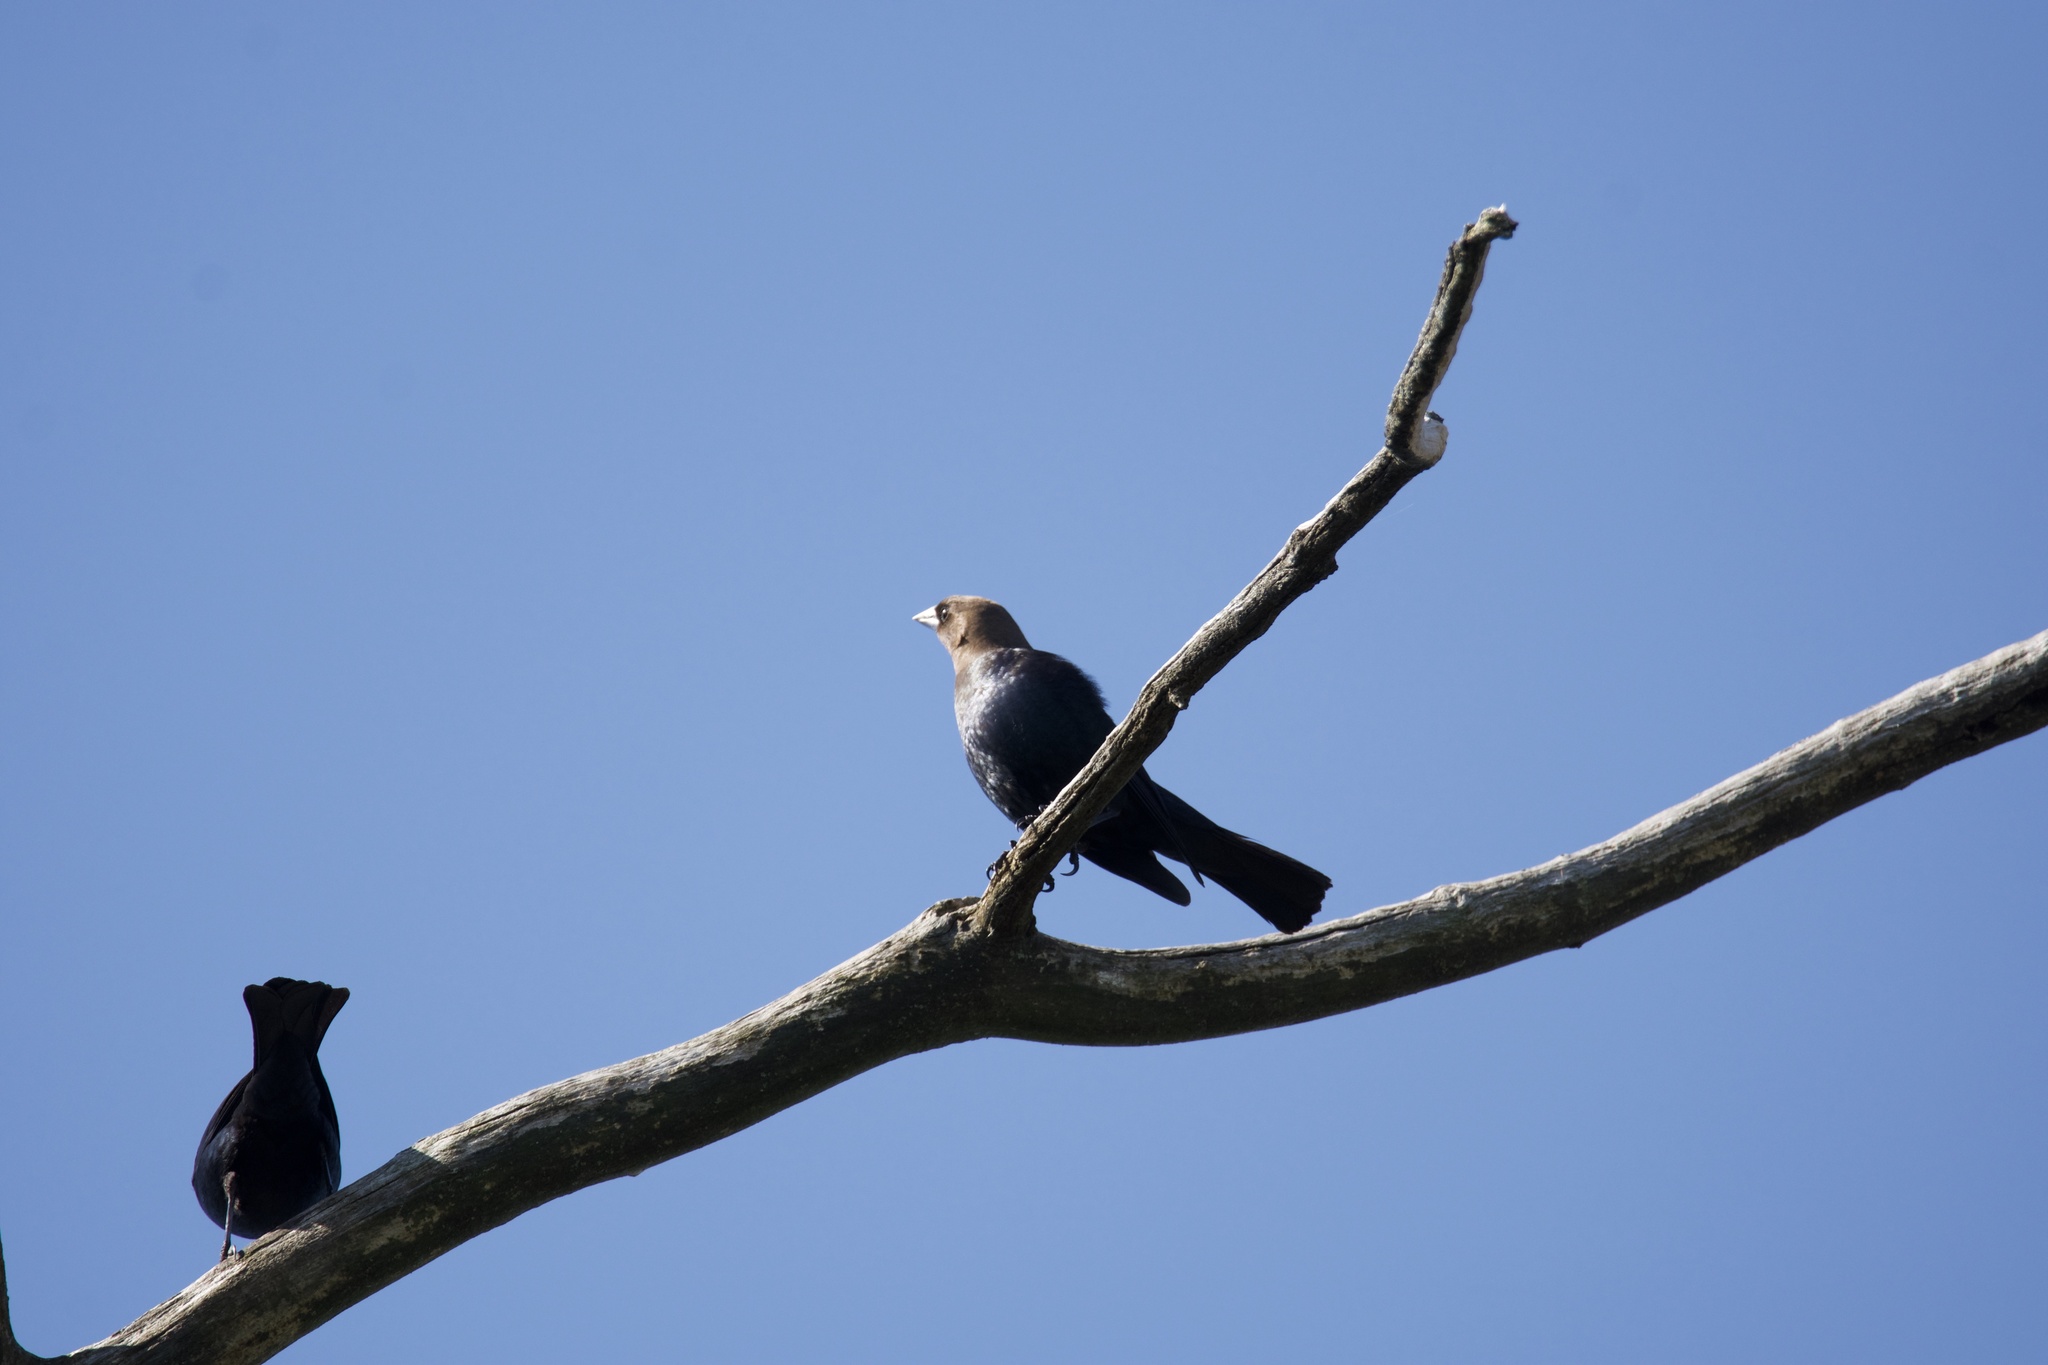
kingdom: Animalia
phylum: Chordata
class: Aves
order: Passeriformes
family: Icteridae
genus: Molothrus
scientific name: Molothrus ater
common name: Brown-headed cowbird
